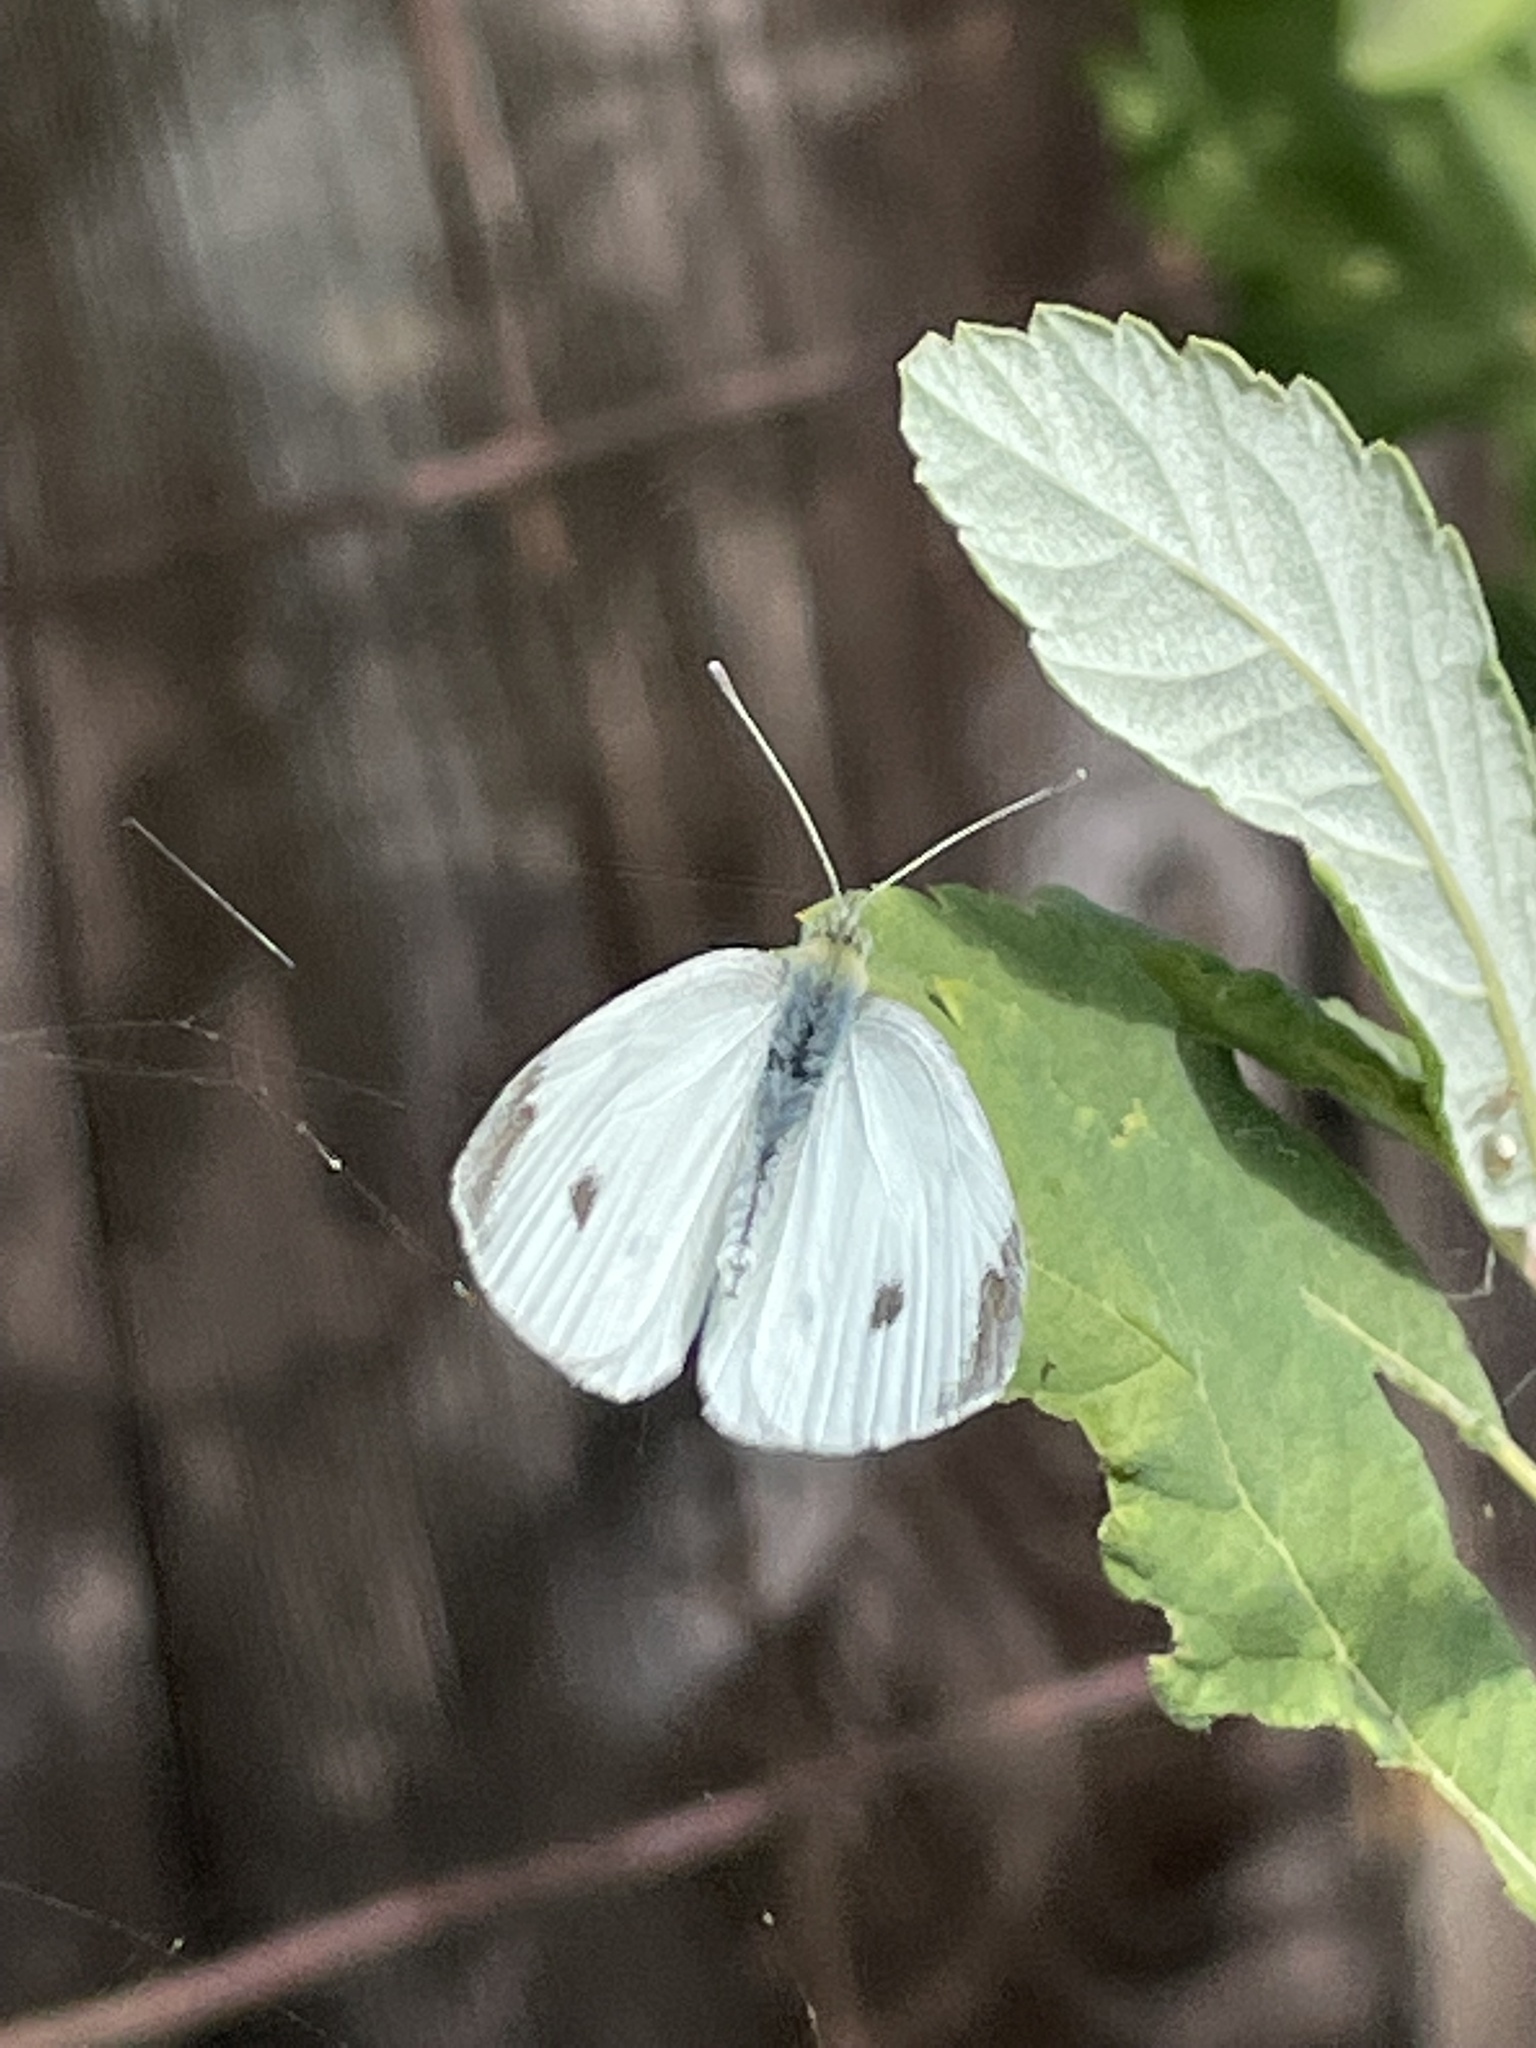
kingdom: Animalia
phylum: Arthropoda
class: Insecta
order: Lepidoptera
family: Pieridae
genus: Pieris
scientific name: Pieris rapae
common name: Small white
